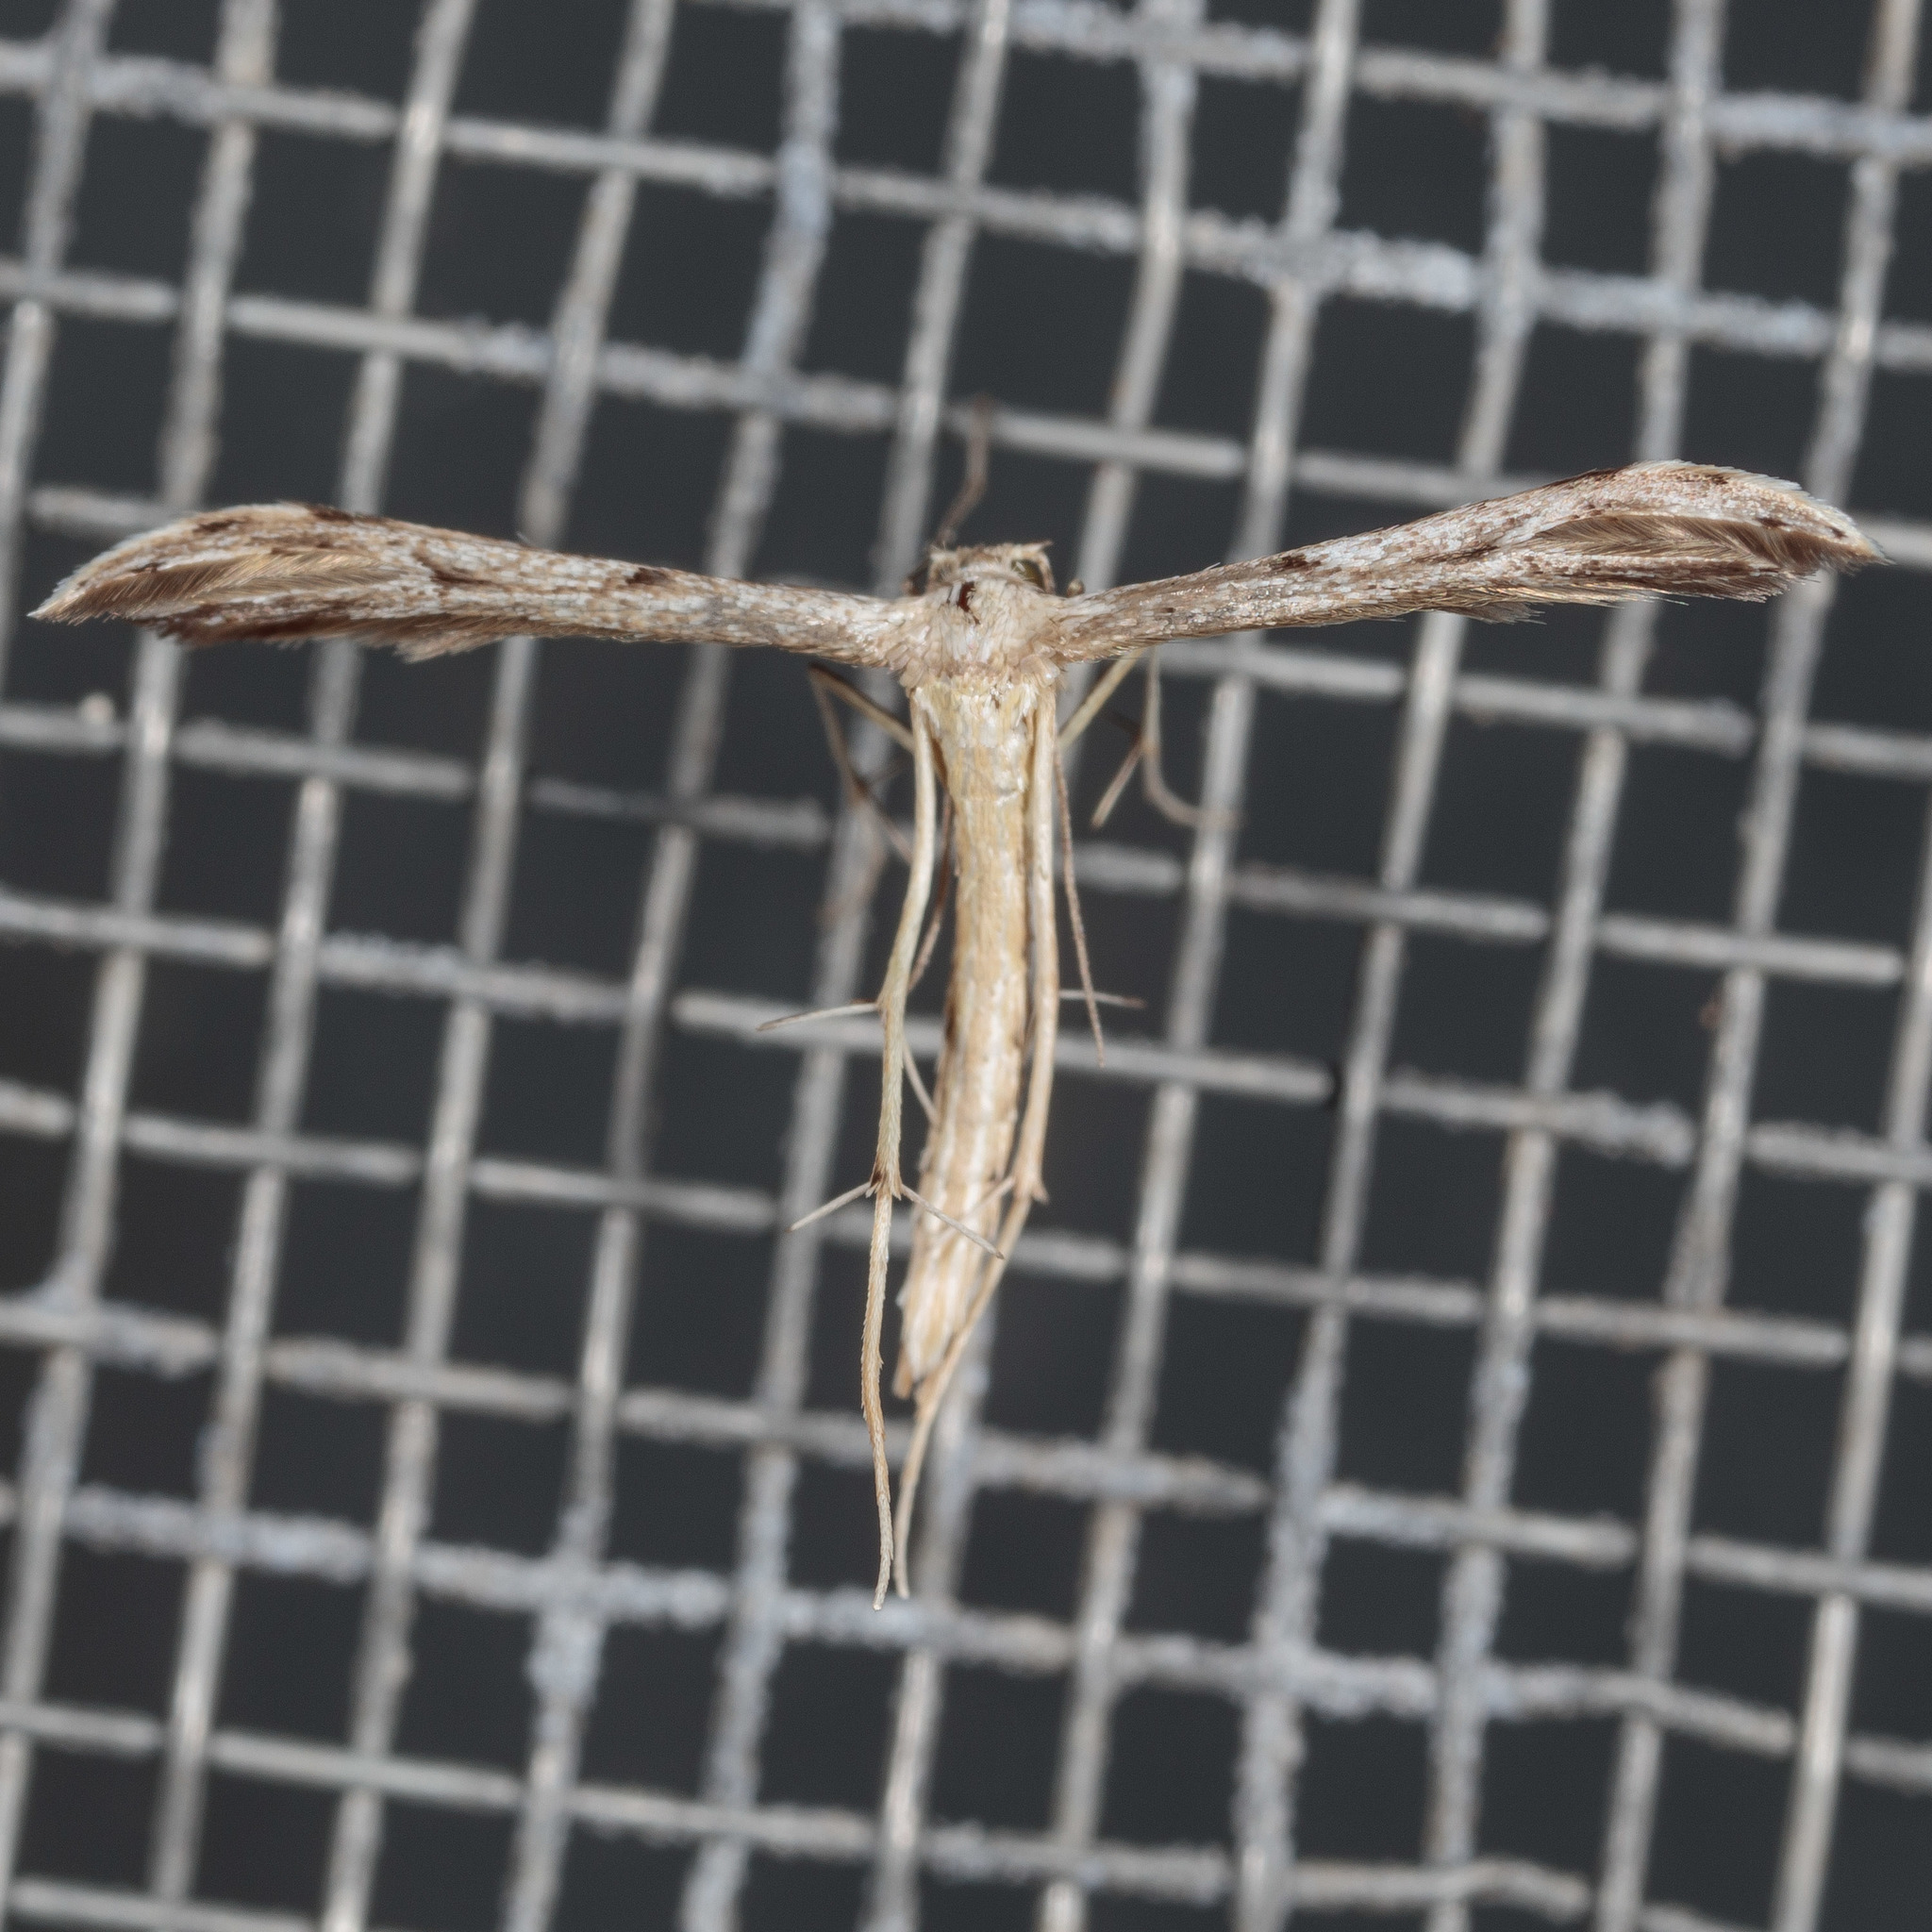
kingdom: Animalia
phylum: Arthropoda
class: Insecta
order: Lepidoptera
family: Pterophoridae
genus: Pselnophorus
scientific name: Pselnophorus belfragei
